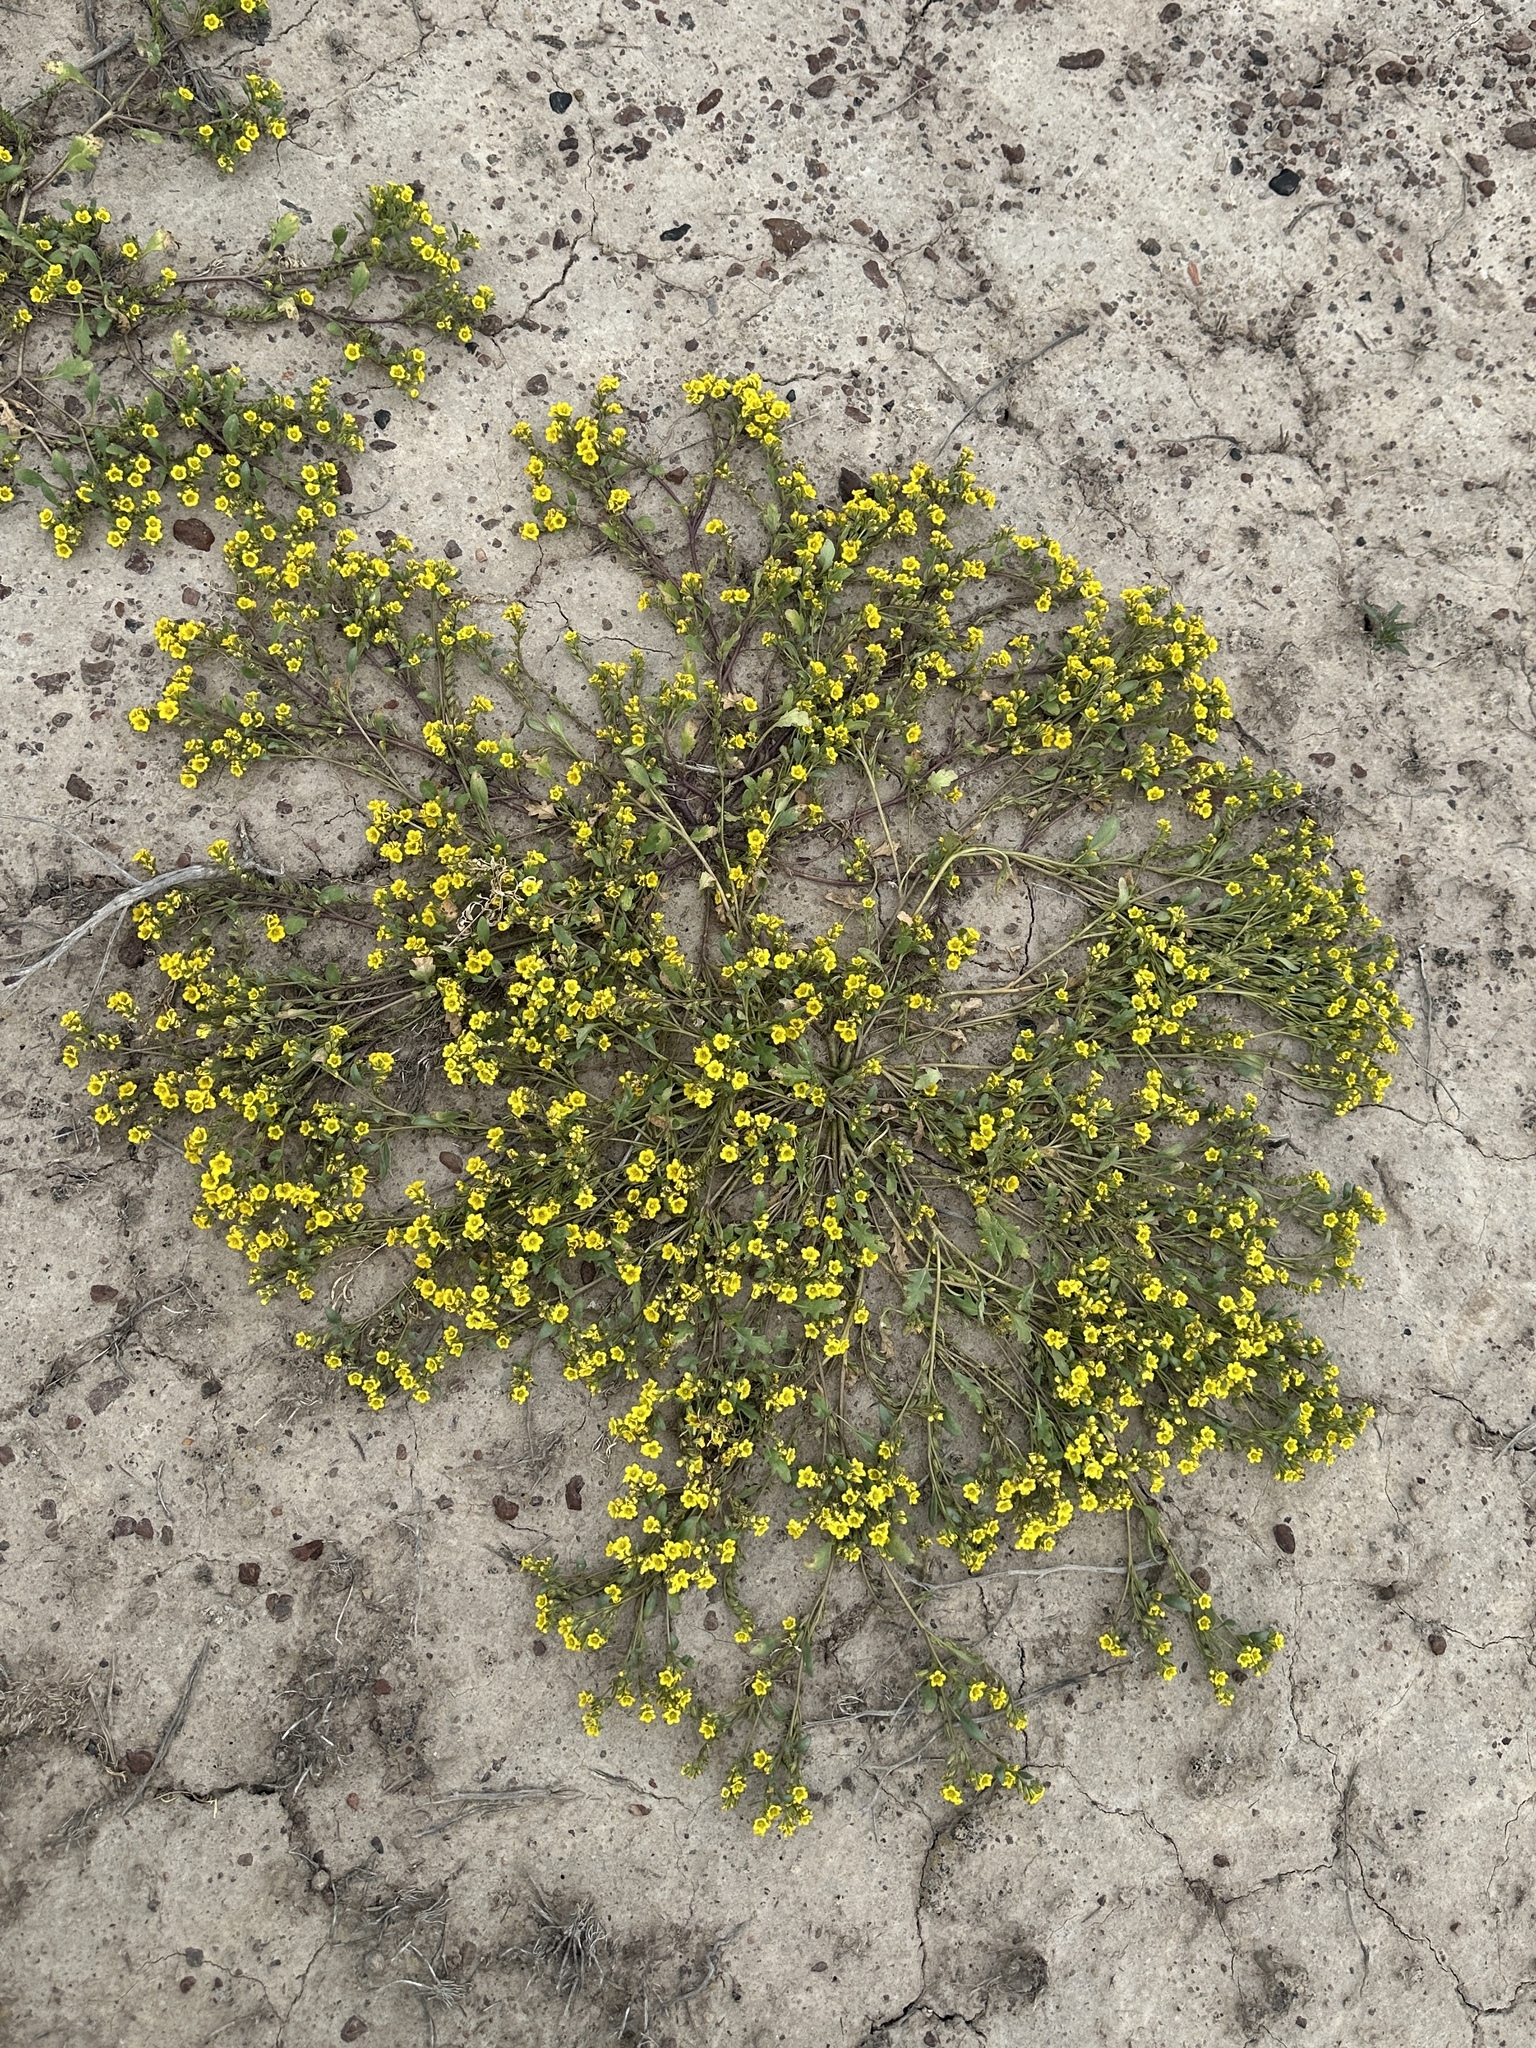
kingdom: Plantae
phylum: Tracheophyta
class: Magnoliopsida
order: Boraginales
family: Hydrophyllaceae
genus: Phacelia
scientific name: Phacelia lutea
